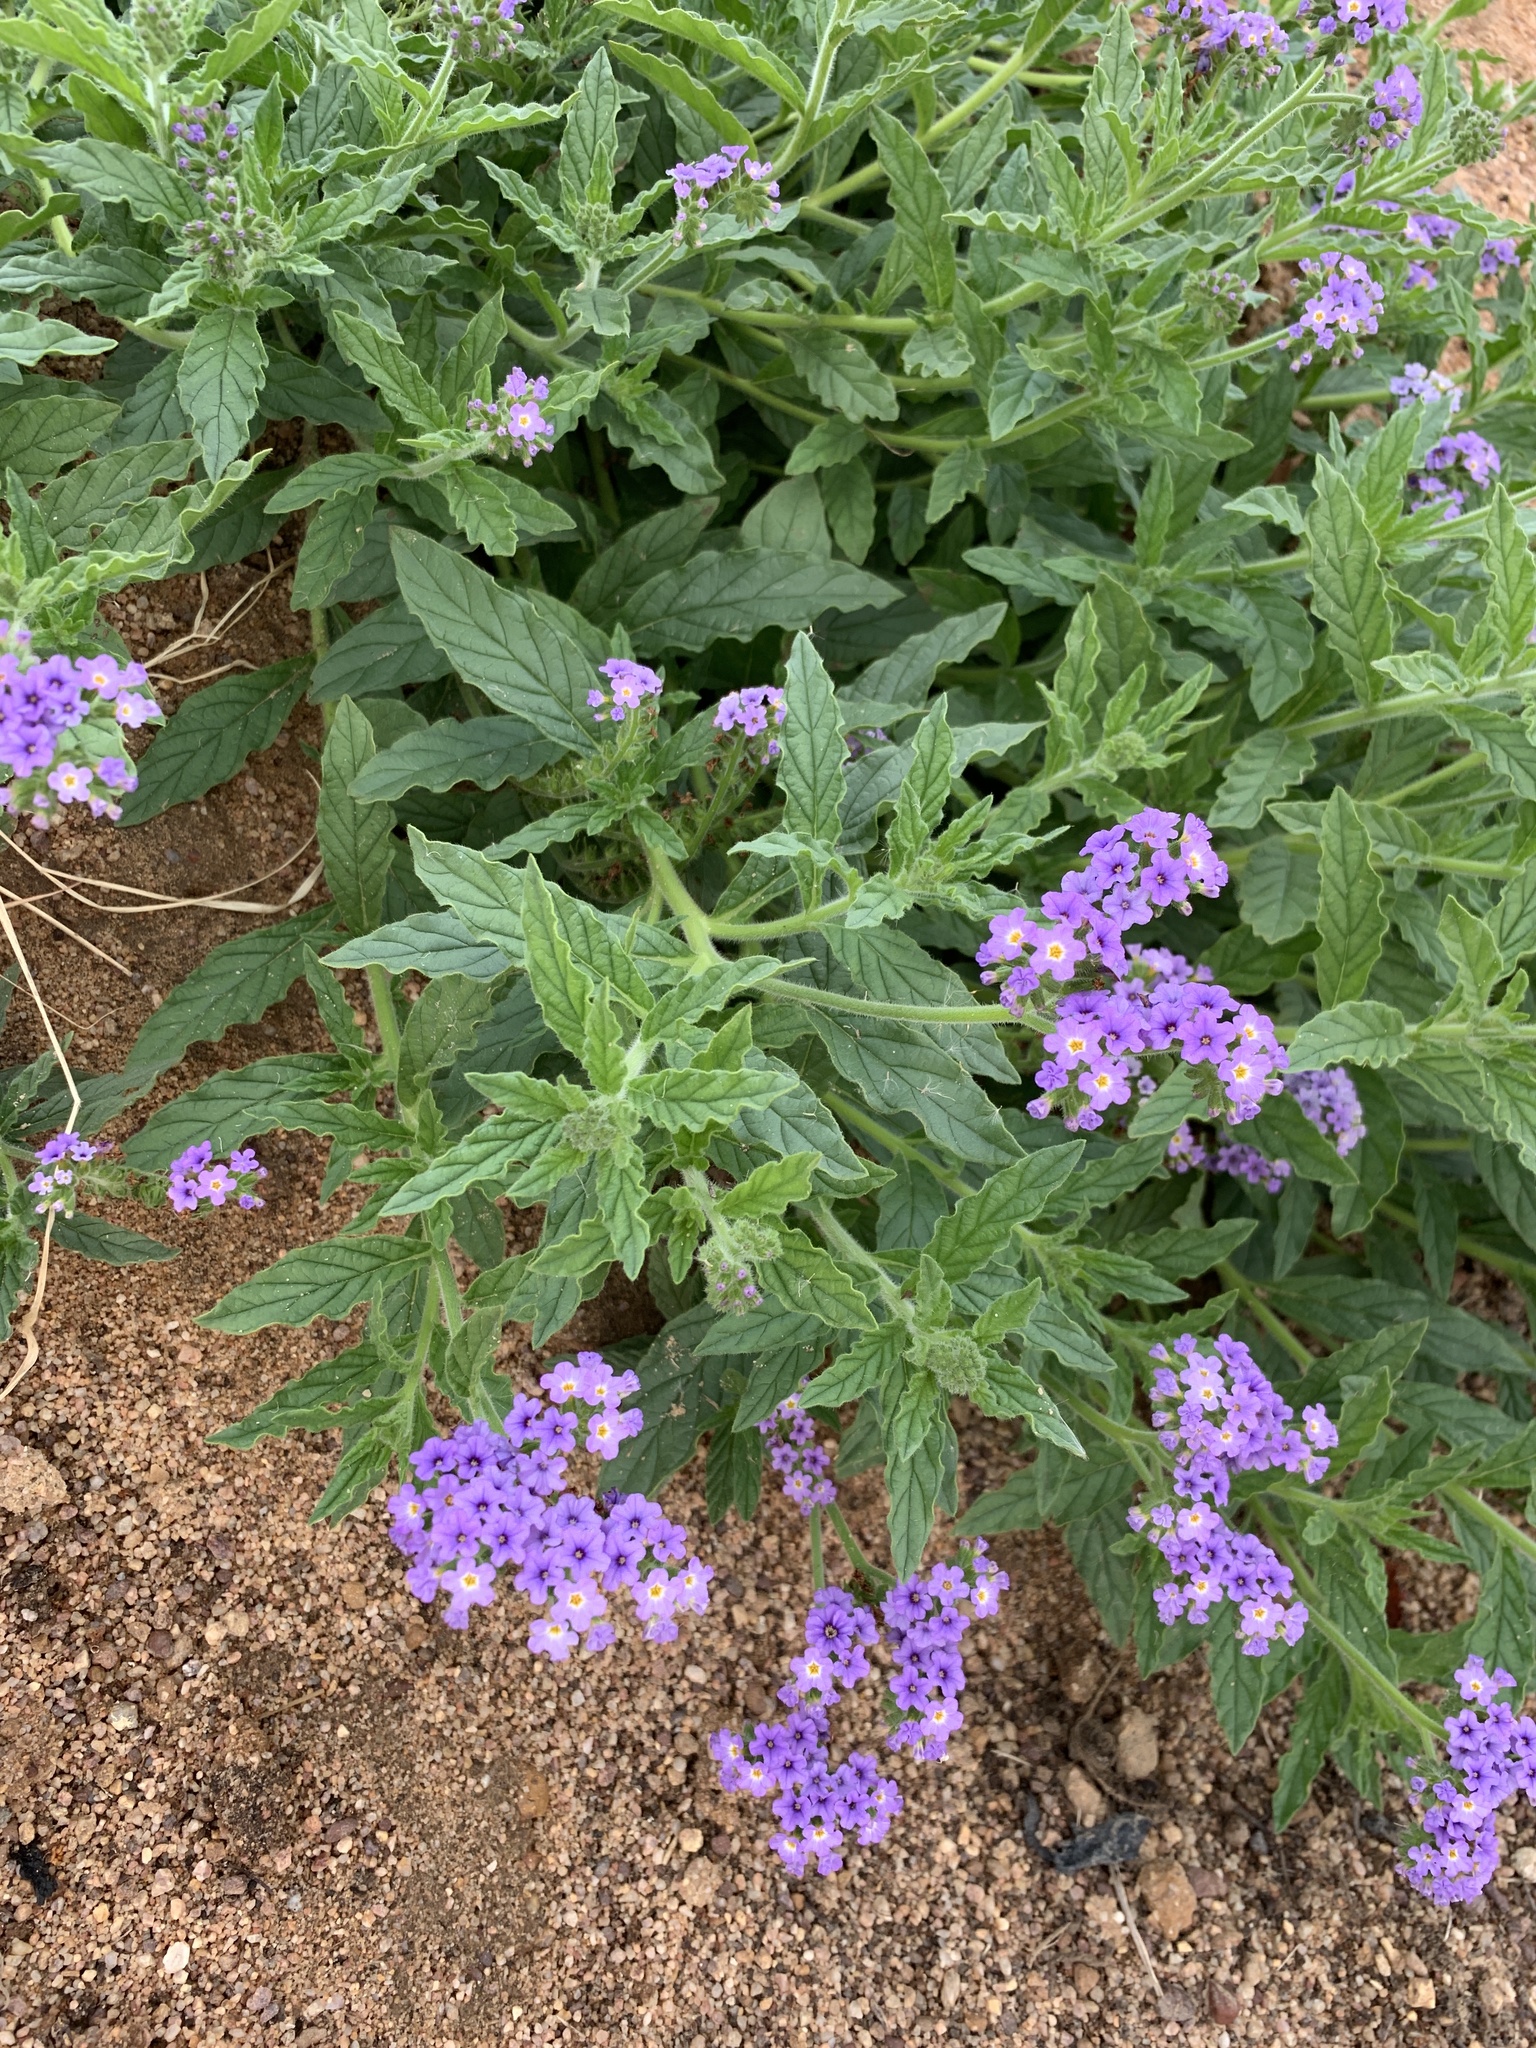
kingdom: Plantae
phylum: Tracheophyta
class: Magnoliopsida
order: Boraginales
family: Heliotropiaceae
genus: Heliotropium
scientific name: Heliotropium amplexicaule
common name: Clasping heliotrope
